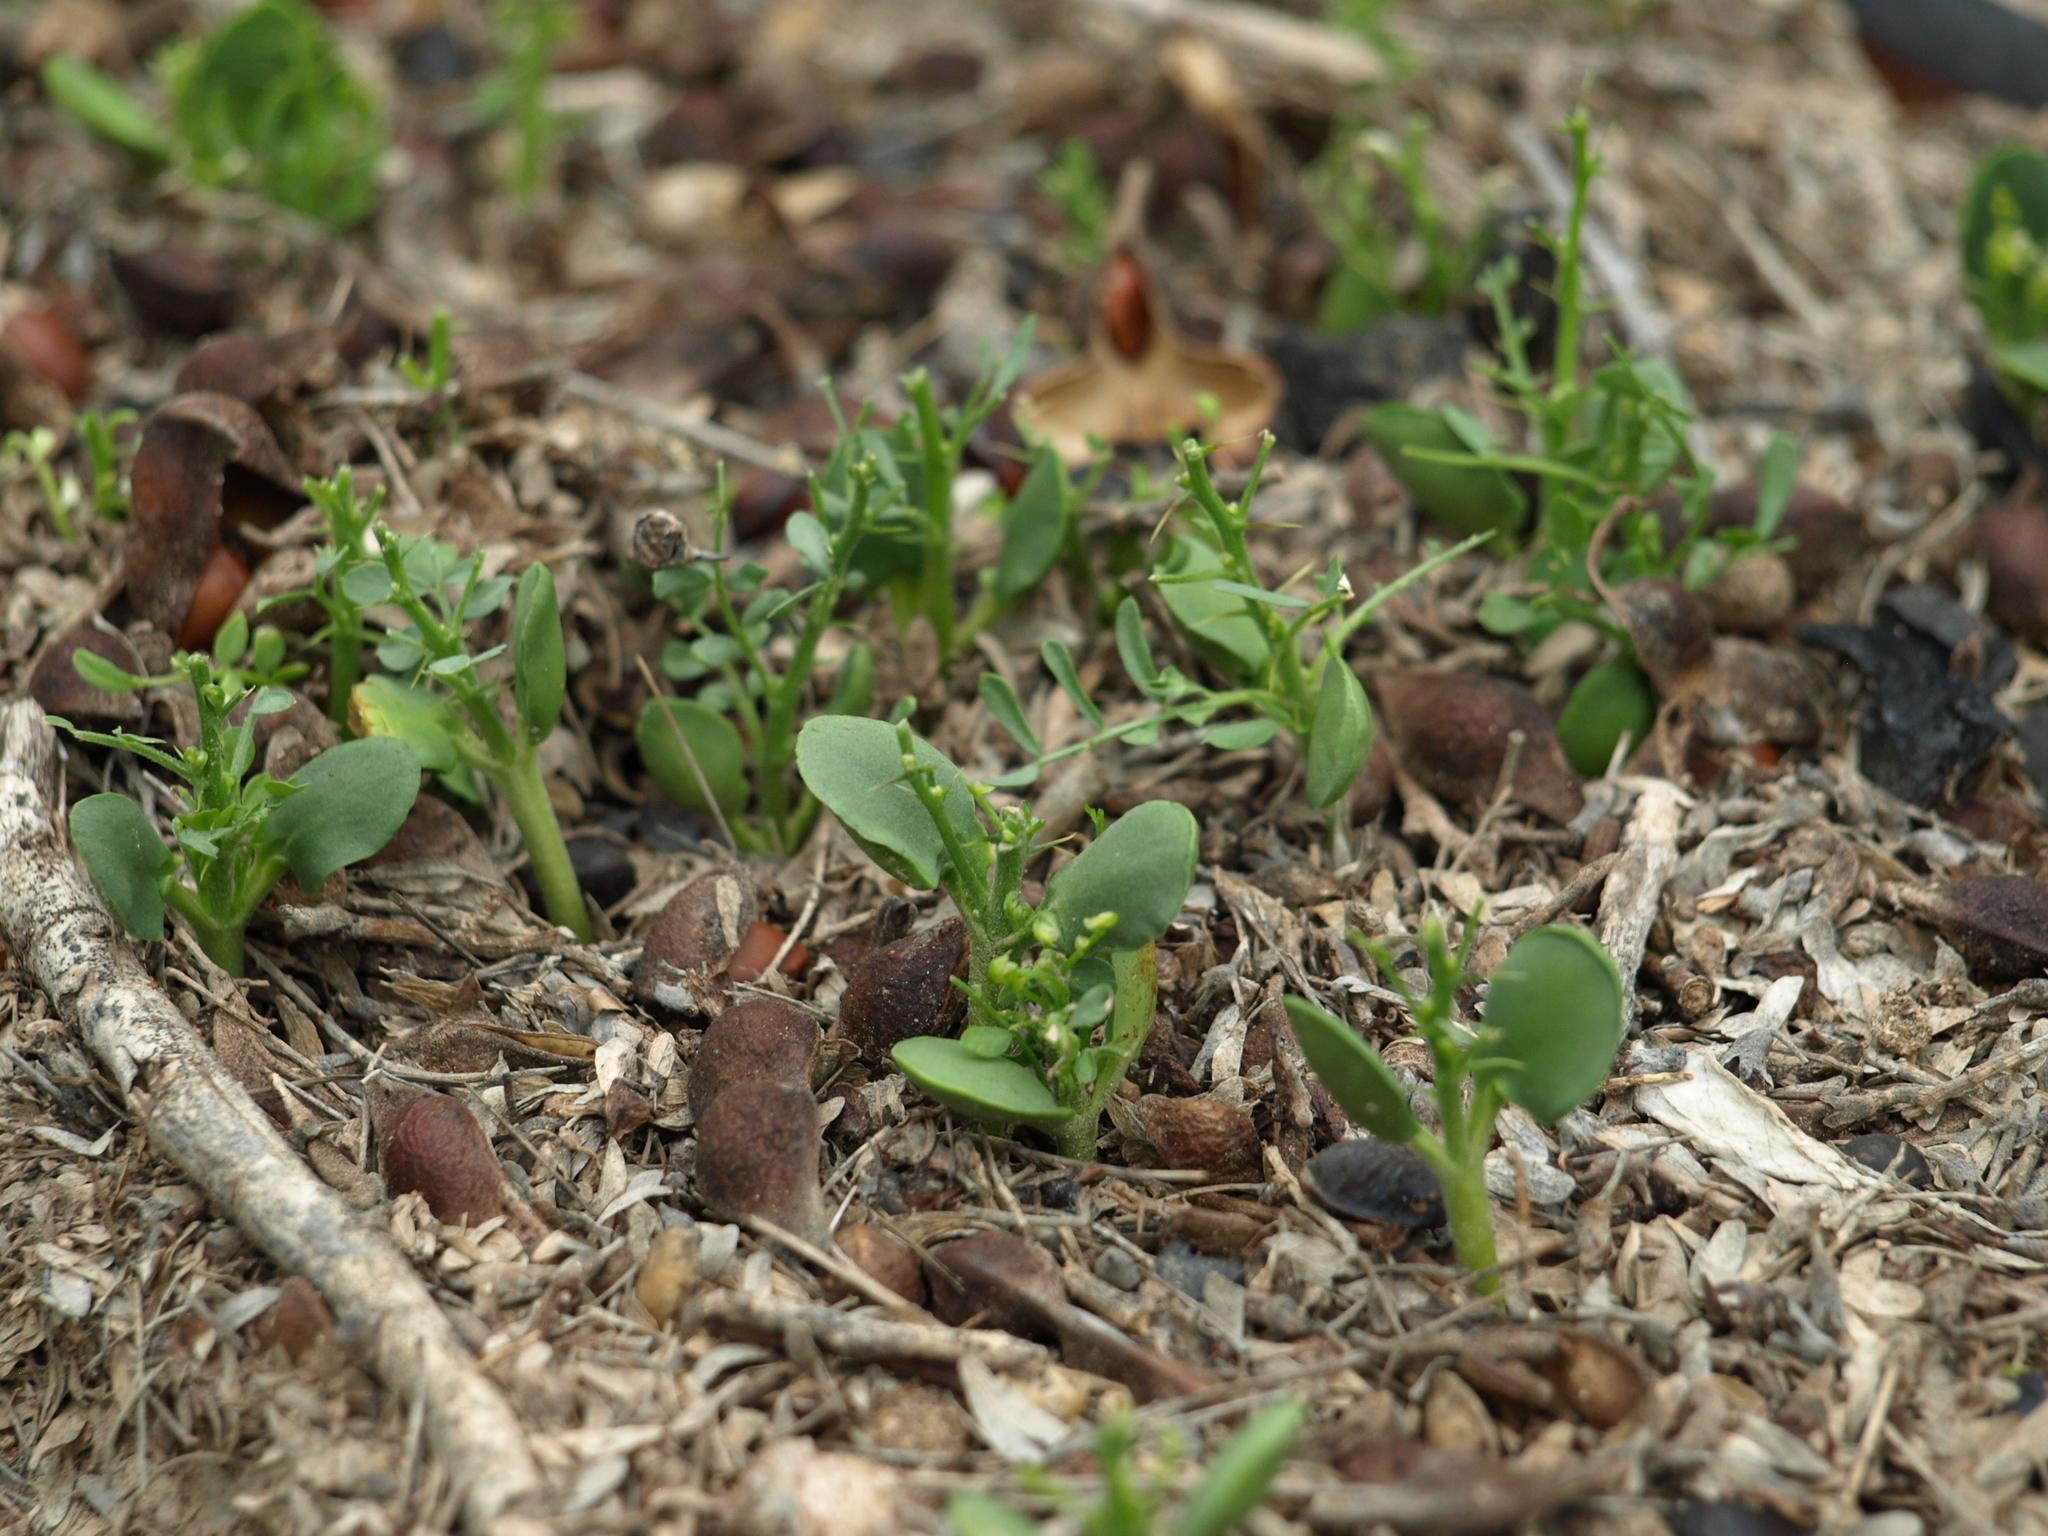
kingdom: Plantae
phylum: Tracheophyta
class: Magnoliopsida
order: Fabales
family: Fabaceae
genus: Olneya
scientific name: Olneya tesota
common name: Desert ironwood
